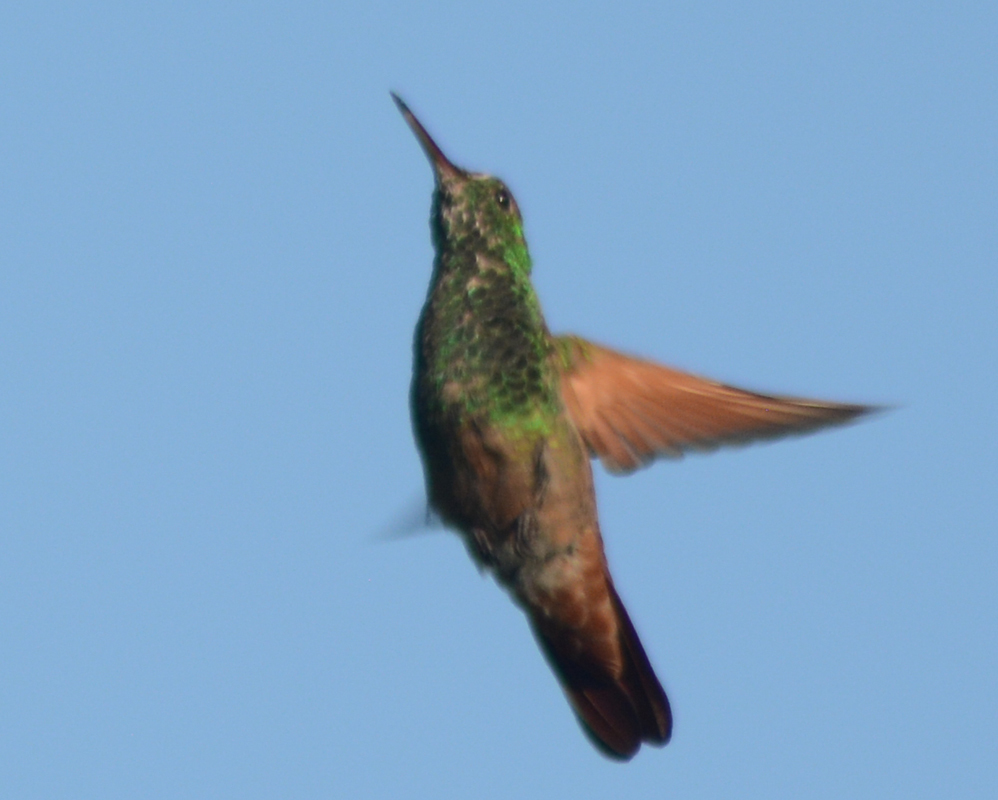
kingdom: Animalia
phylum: Chordata
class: Aves
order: Apodiformes
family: Trochilidae
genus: Saucerottia
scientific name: Saucerottia beryllina
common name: Berylline hummingbird
